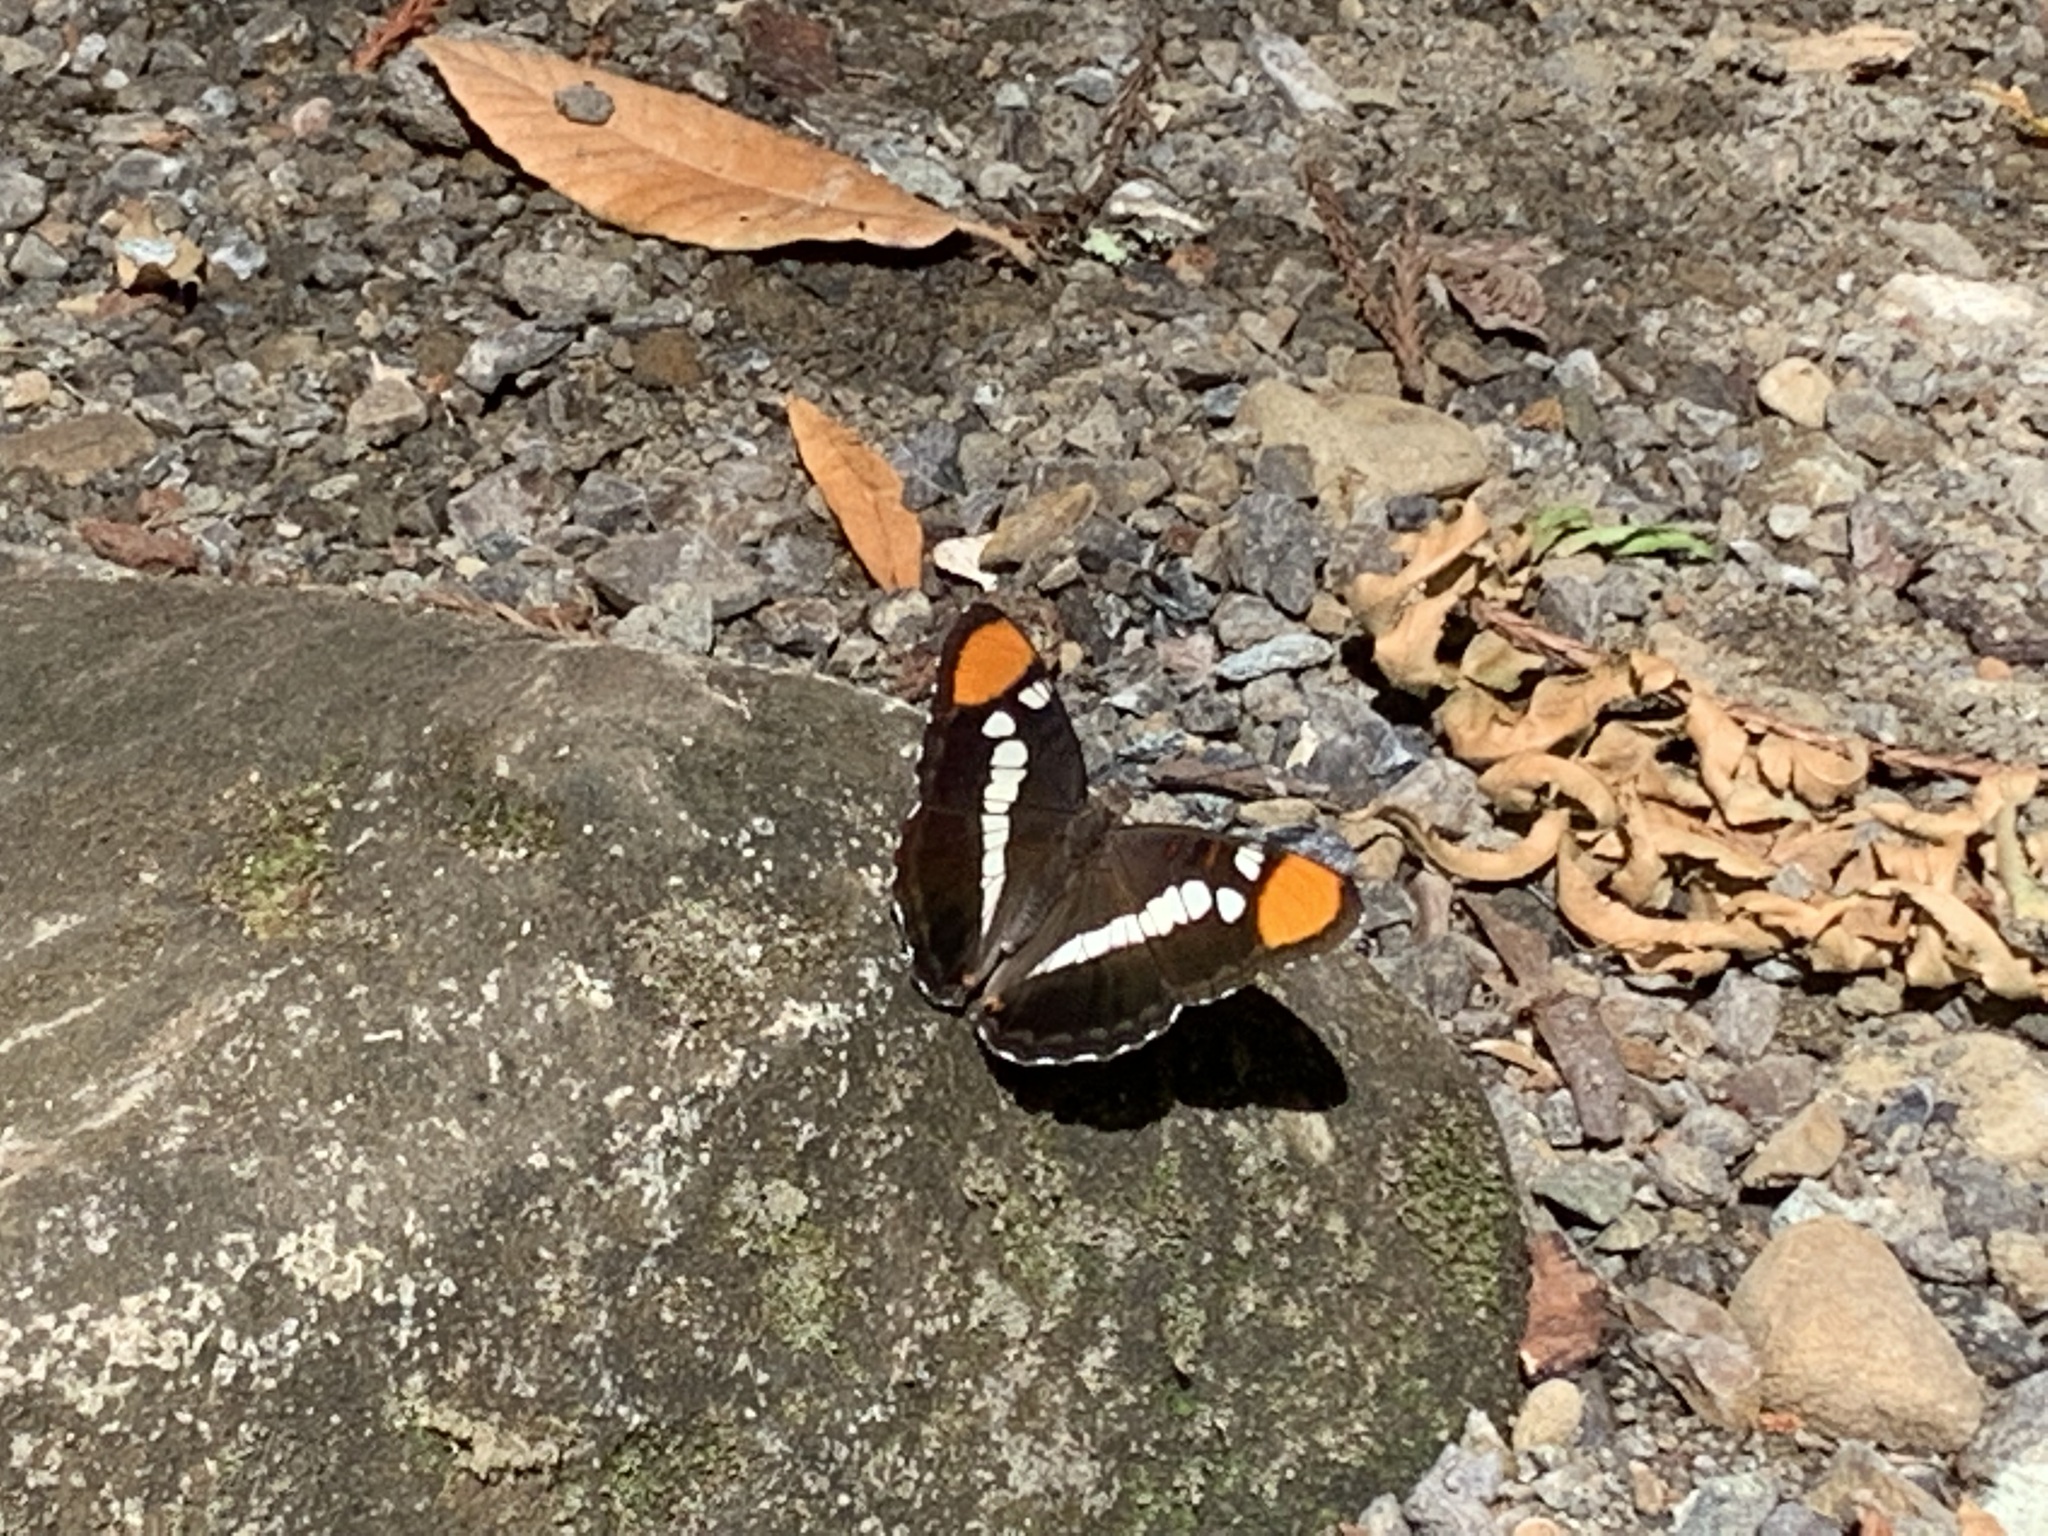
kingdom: Animalia
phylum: Arthropoda
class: Insecta
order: Lepidoptera
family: Nymphalidae
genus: Limenitis
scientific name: Limenitis bredowii
